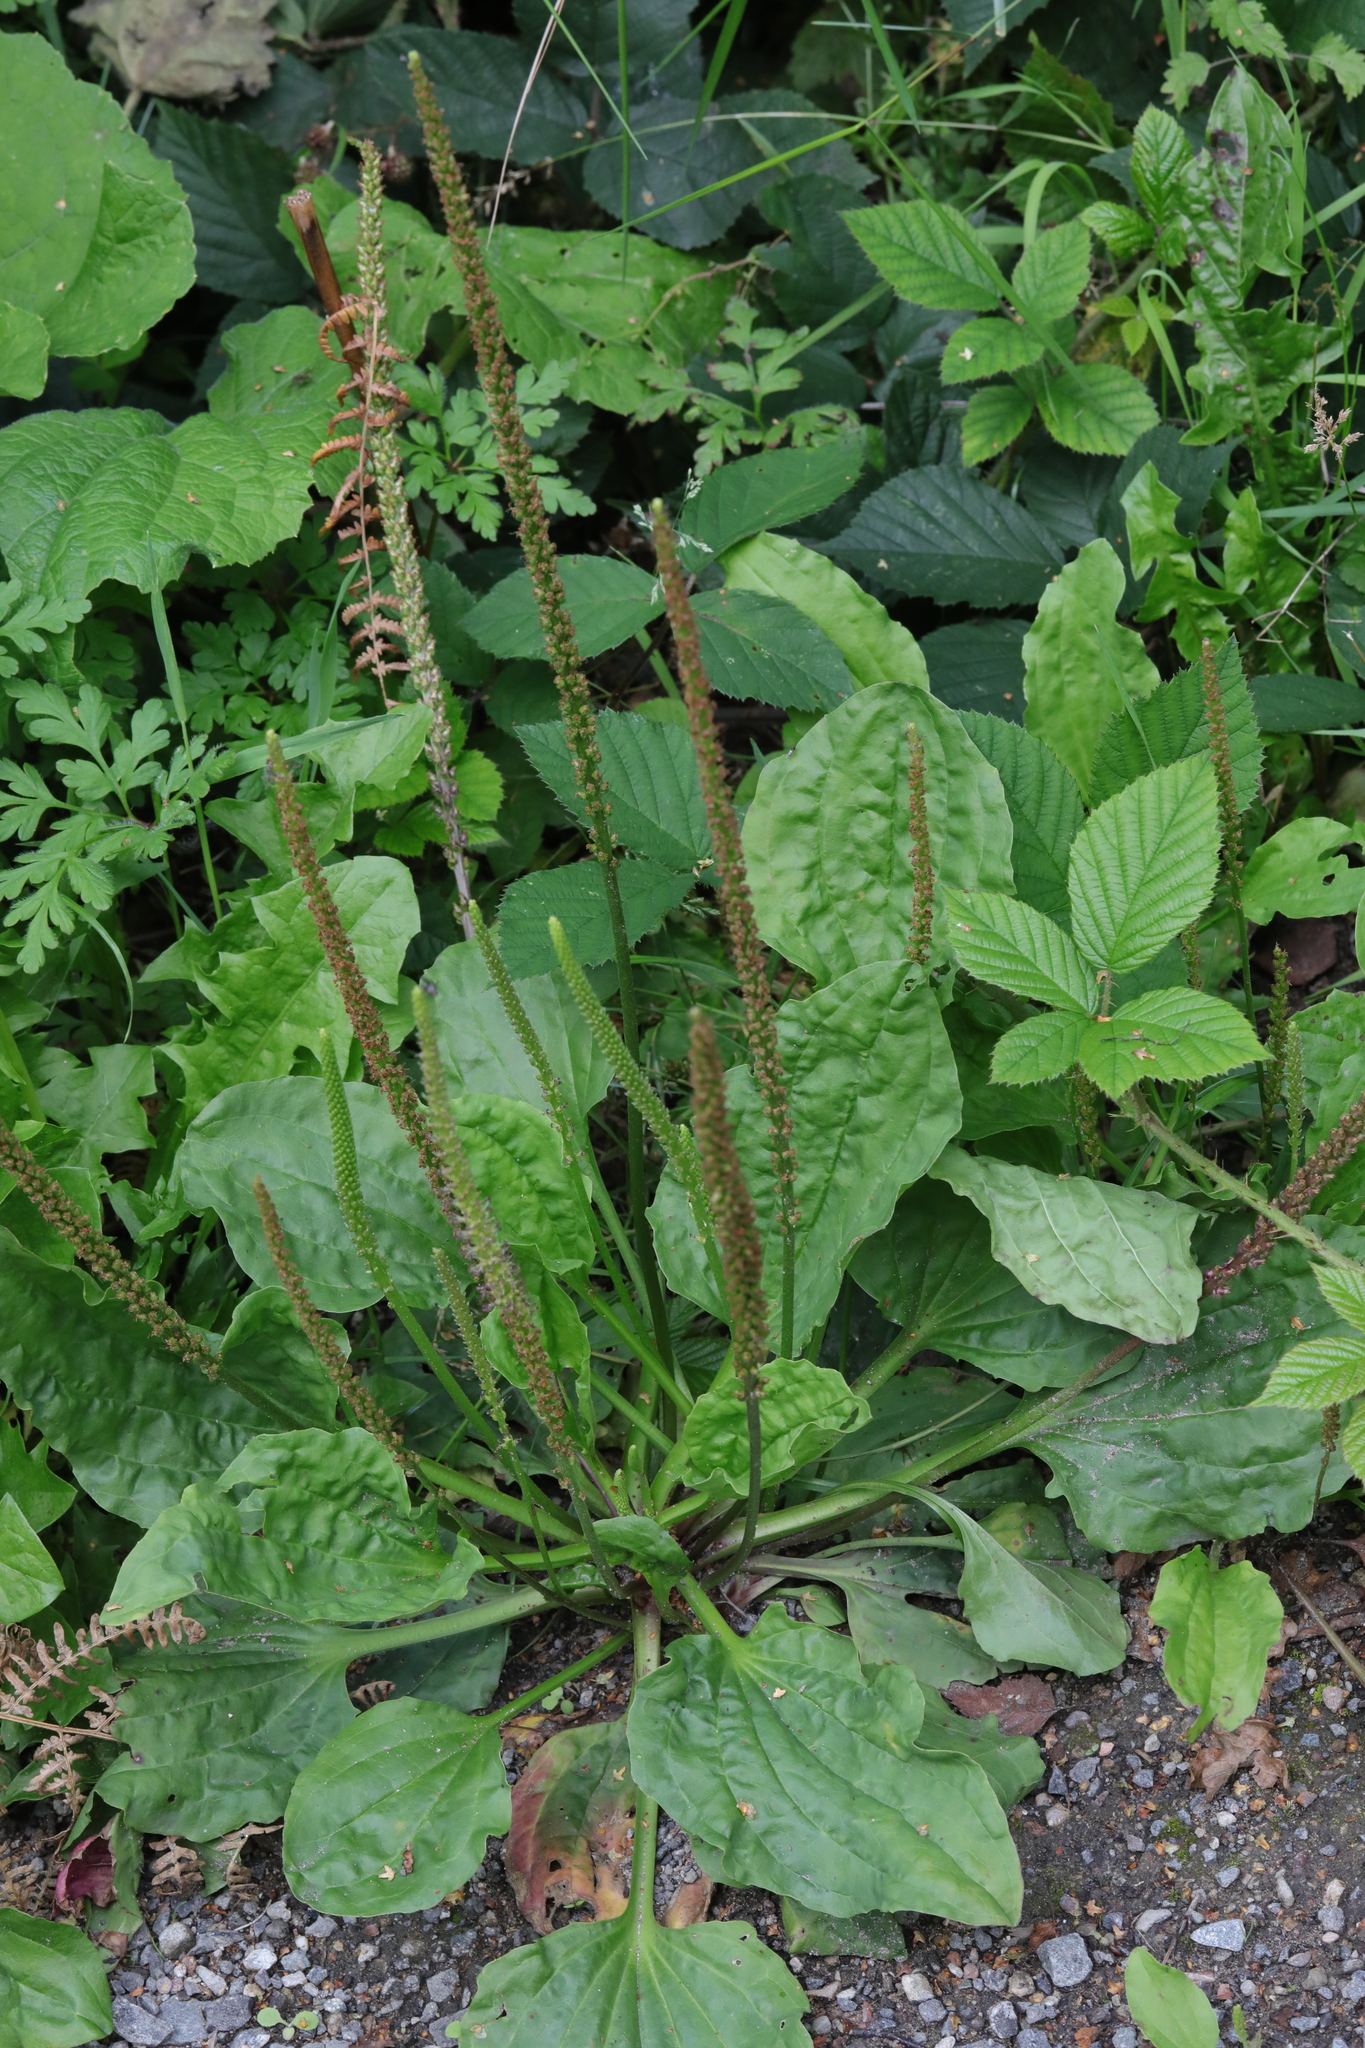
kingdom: Plantae
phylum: Tracheophyta
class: Magnoliopsida
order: Lamiales
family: Plantaginaceae
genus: Plantago
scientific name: Plantago major
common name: Common plantain
